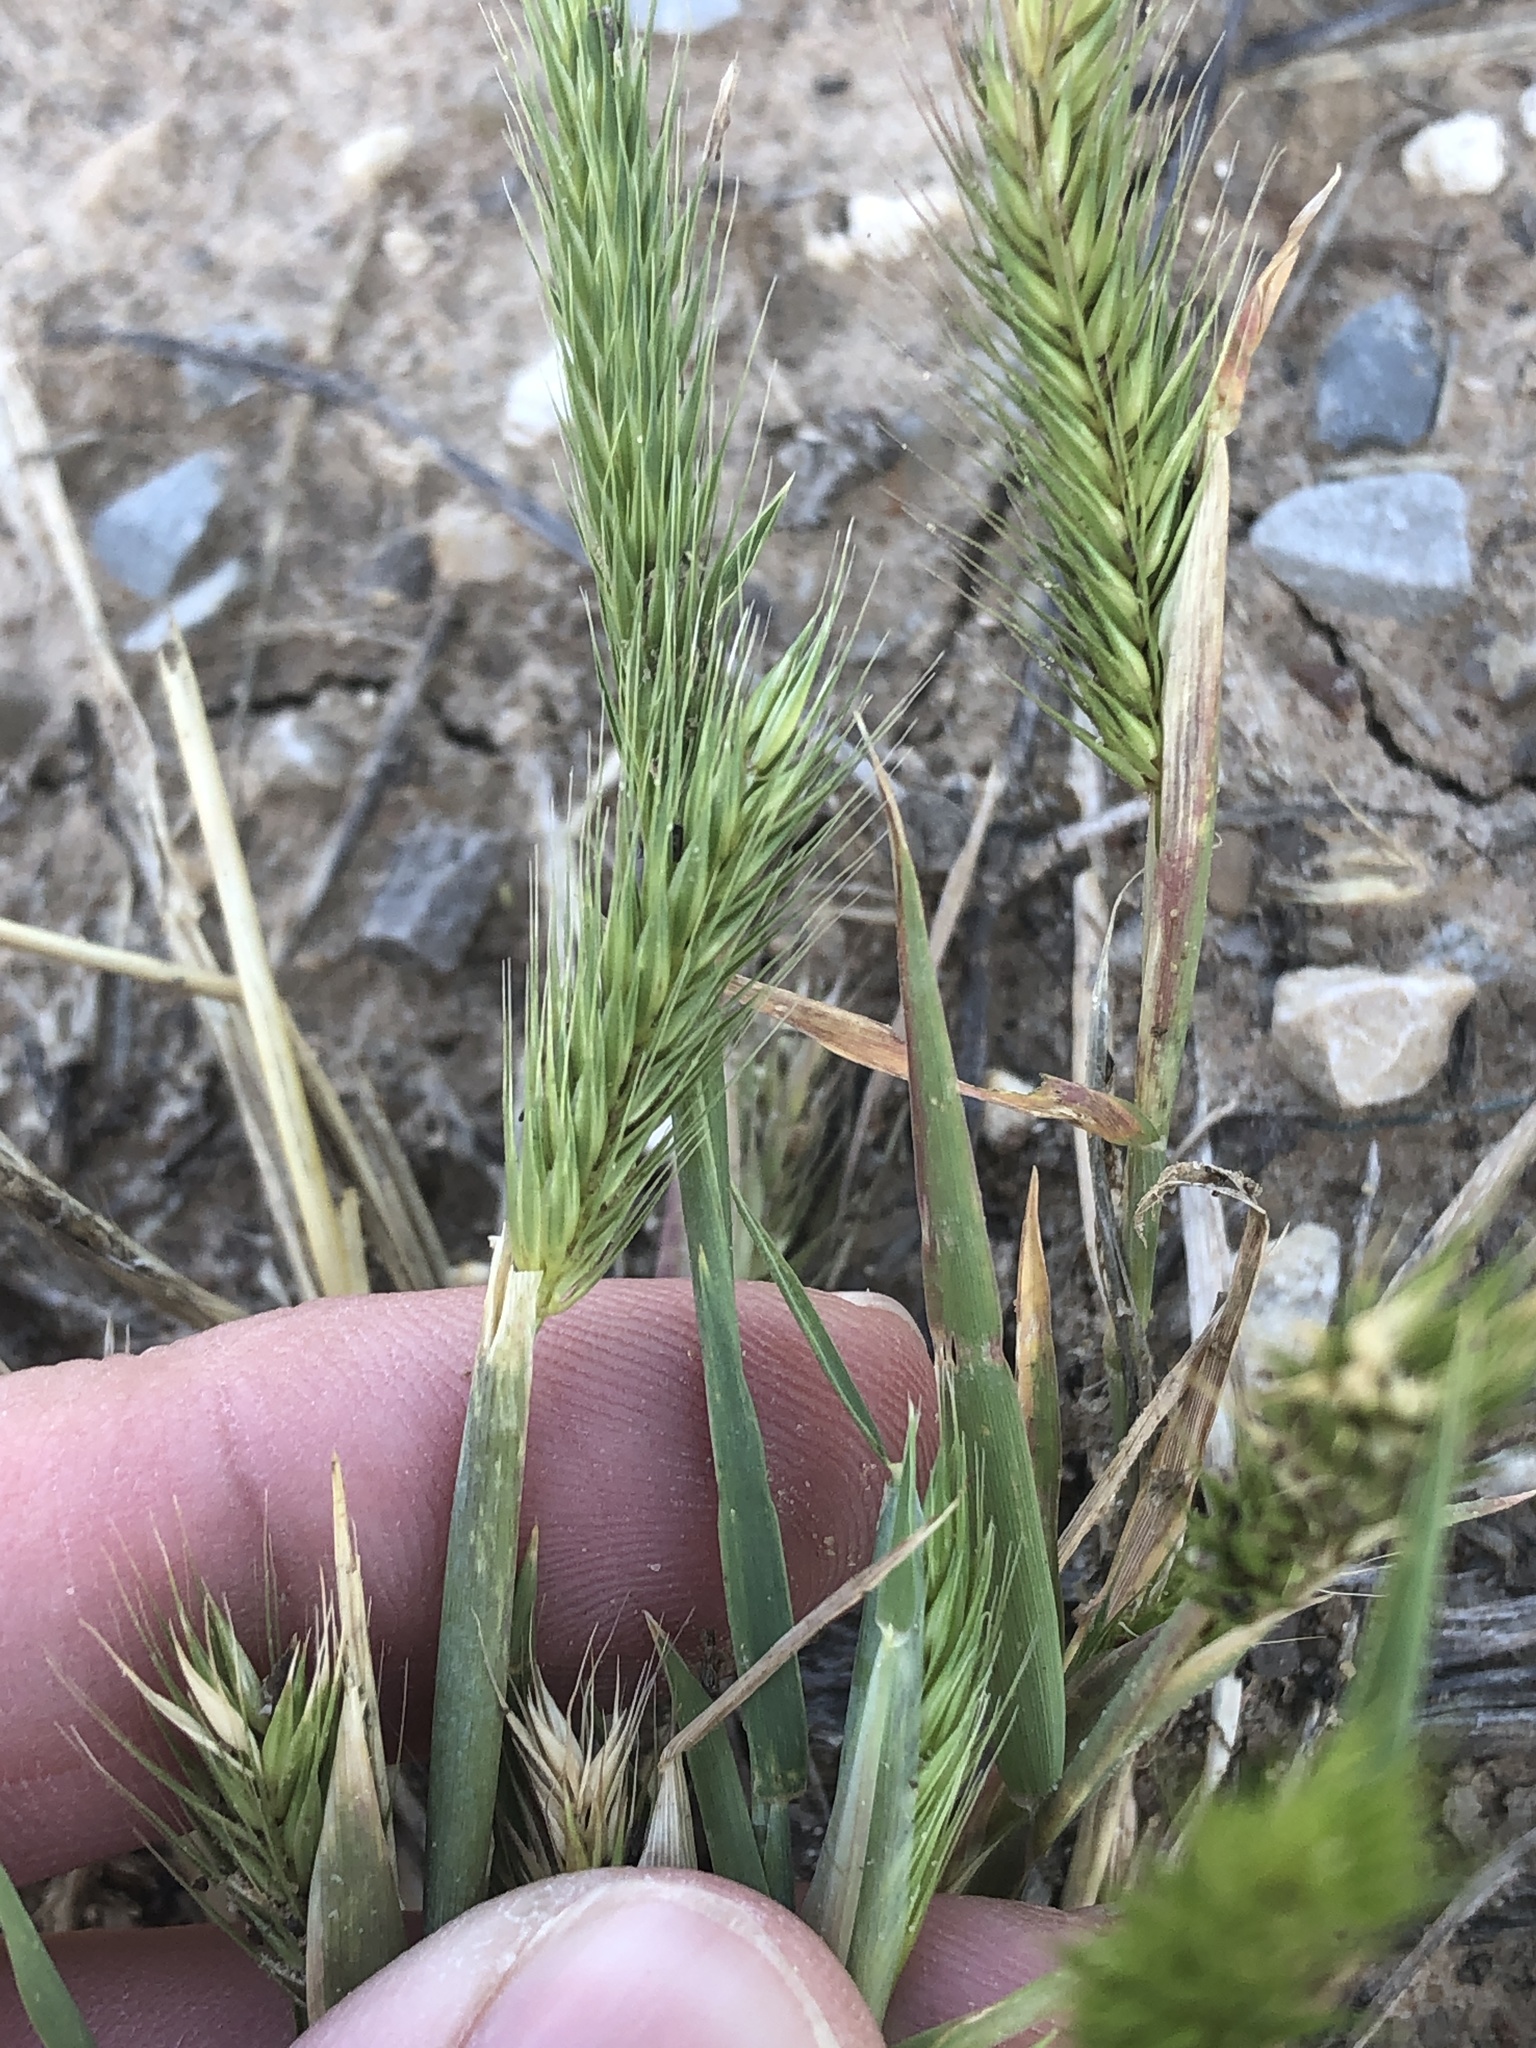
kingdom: Plantae
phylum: Tracheophyta
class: Liliopsida
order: Poales
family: Poaceae
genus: Hordeum
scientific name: Hordeum pusillum
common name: Little barley
